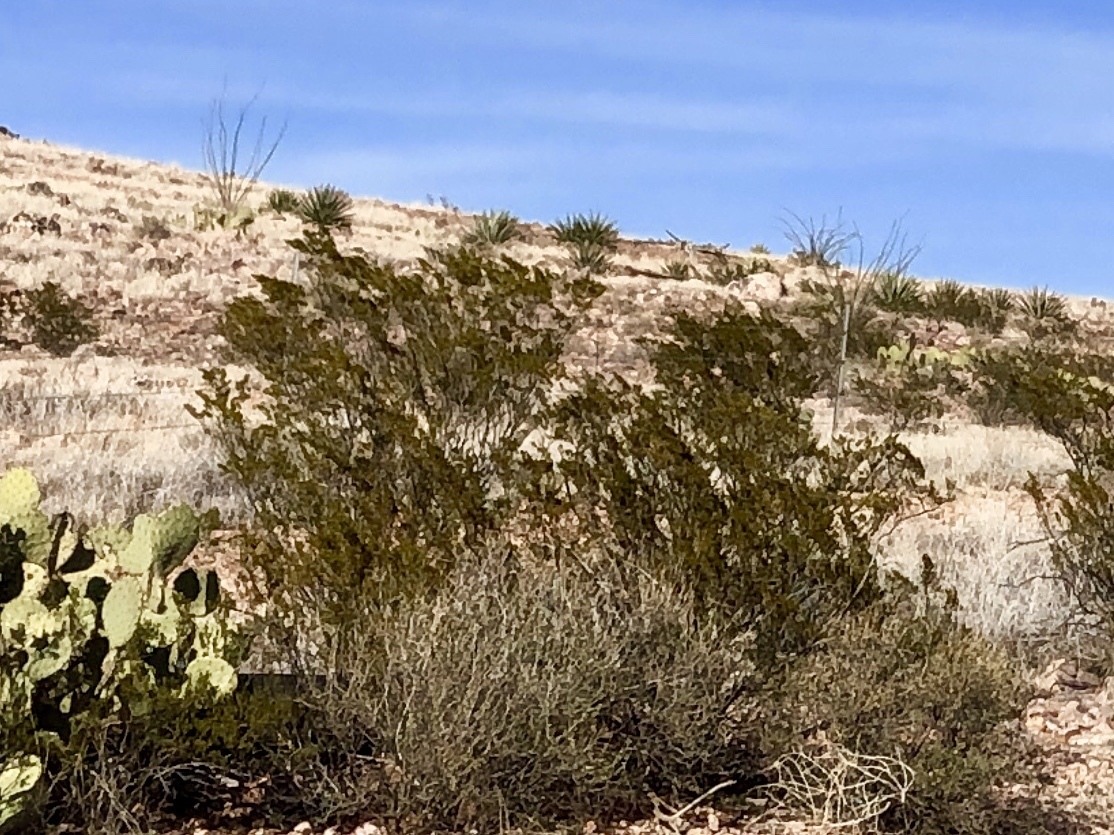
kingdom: Plantae
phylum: Tracheophyta
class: Magnoliopsida
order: Zygophyllales
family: Zygophyllaceae
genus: Larrea
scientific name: Larrea tridentata
